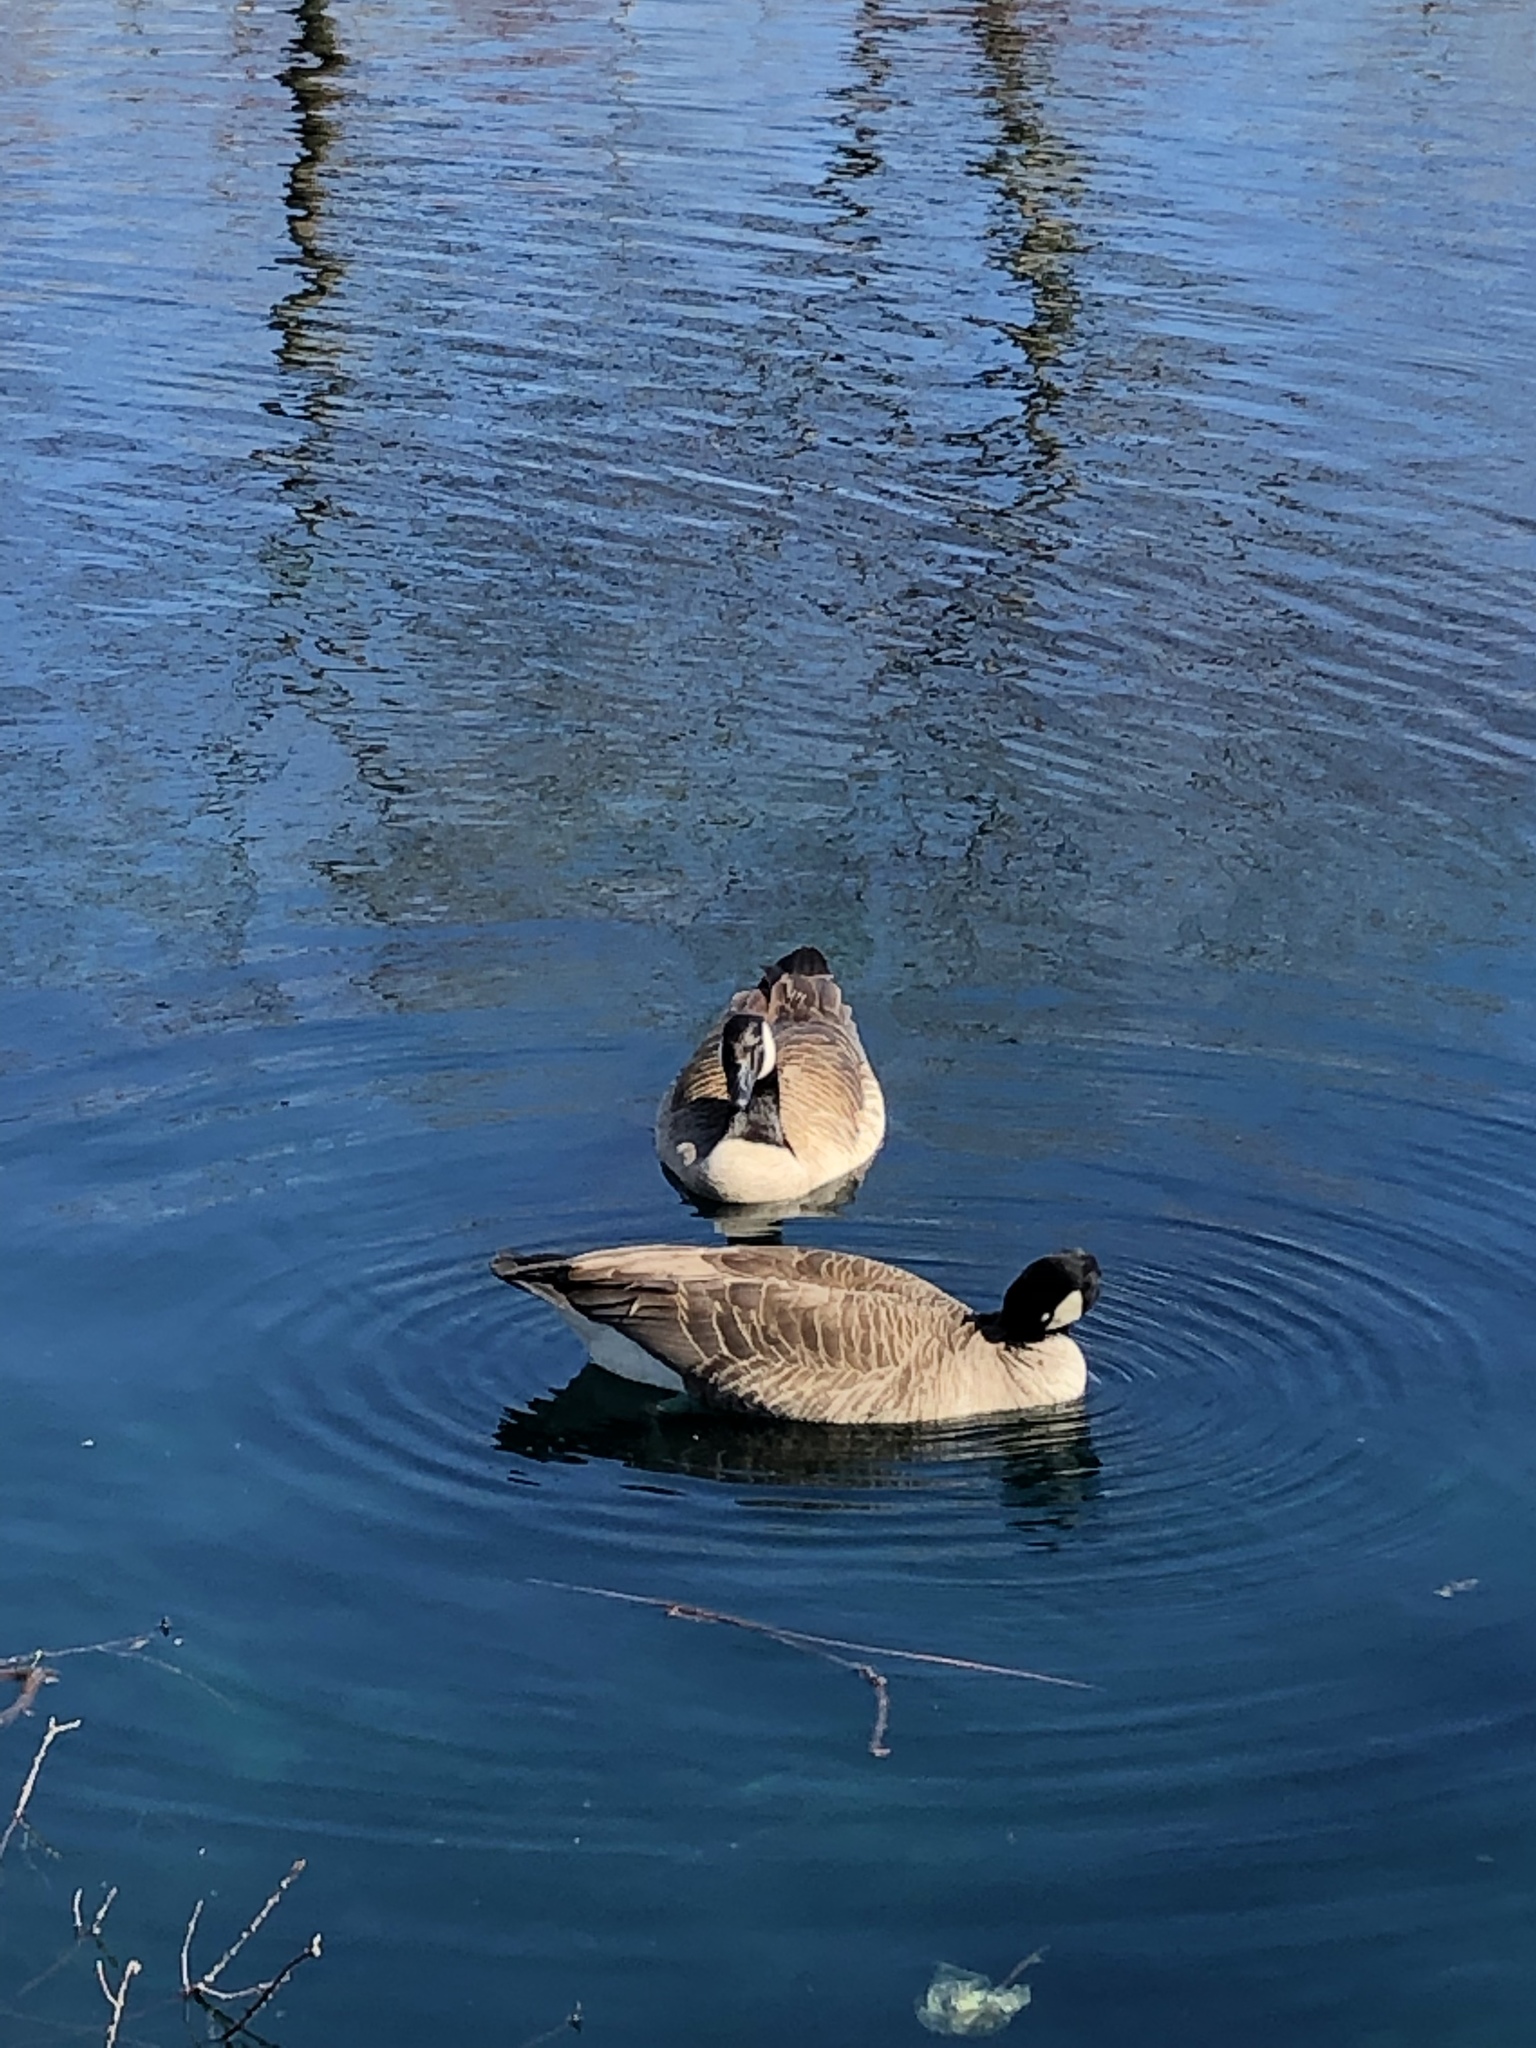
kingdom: Animalia
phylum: Chordata
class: Aves
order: Anseriformes
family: Anatidae
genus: Branta
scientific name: Branta canadensis
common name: Canada goose
